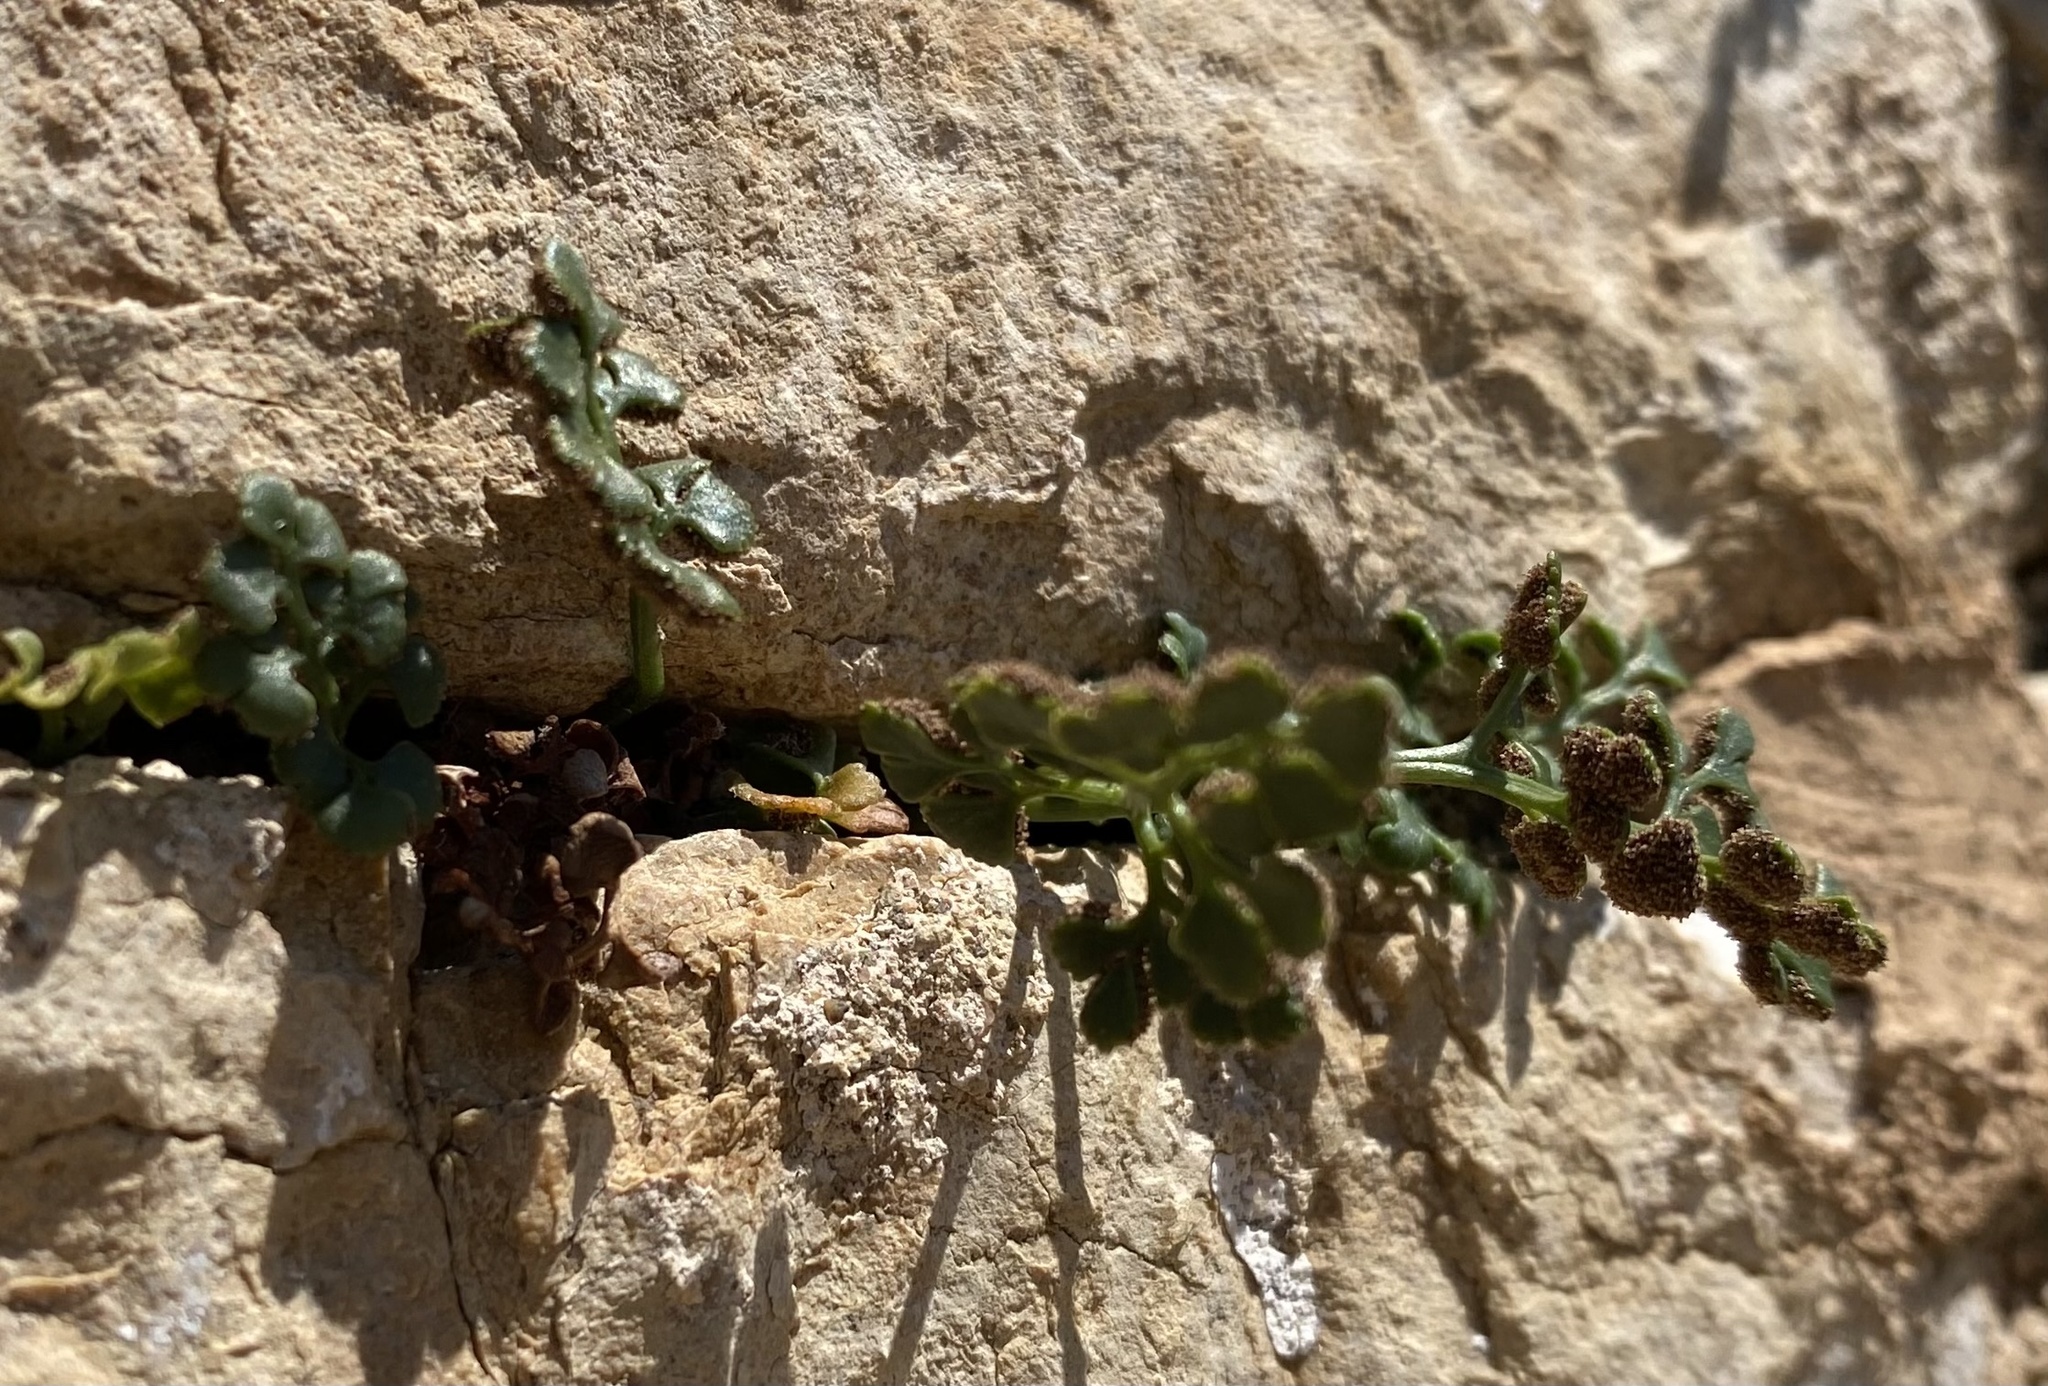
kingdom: Plantae
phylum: Tracheophyta
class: Polypodiopsida
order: Polypodiales
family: Aspleniaceae
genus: Asplenium
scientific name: Asplenium ruta-muraria
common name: Wall-rue
